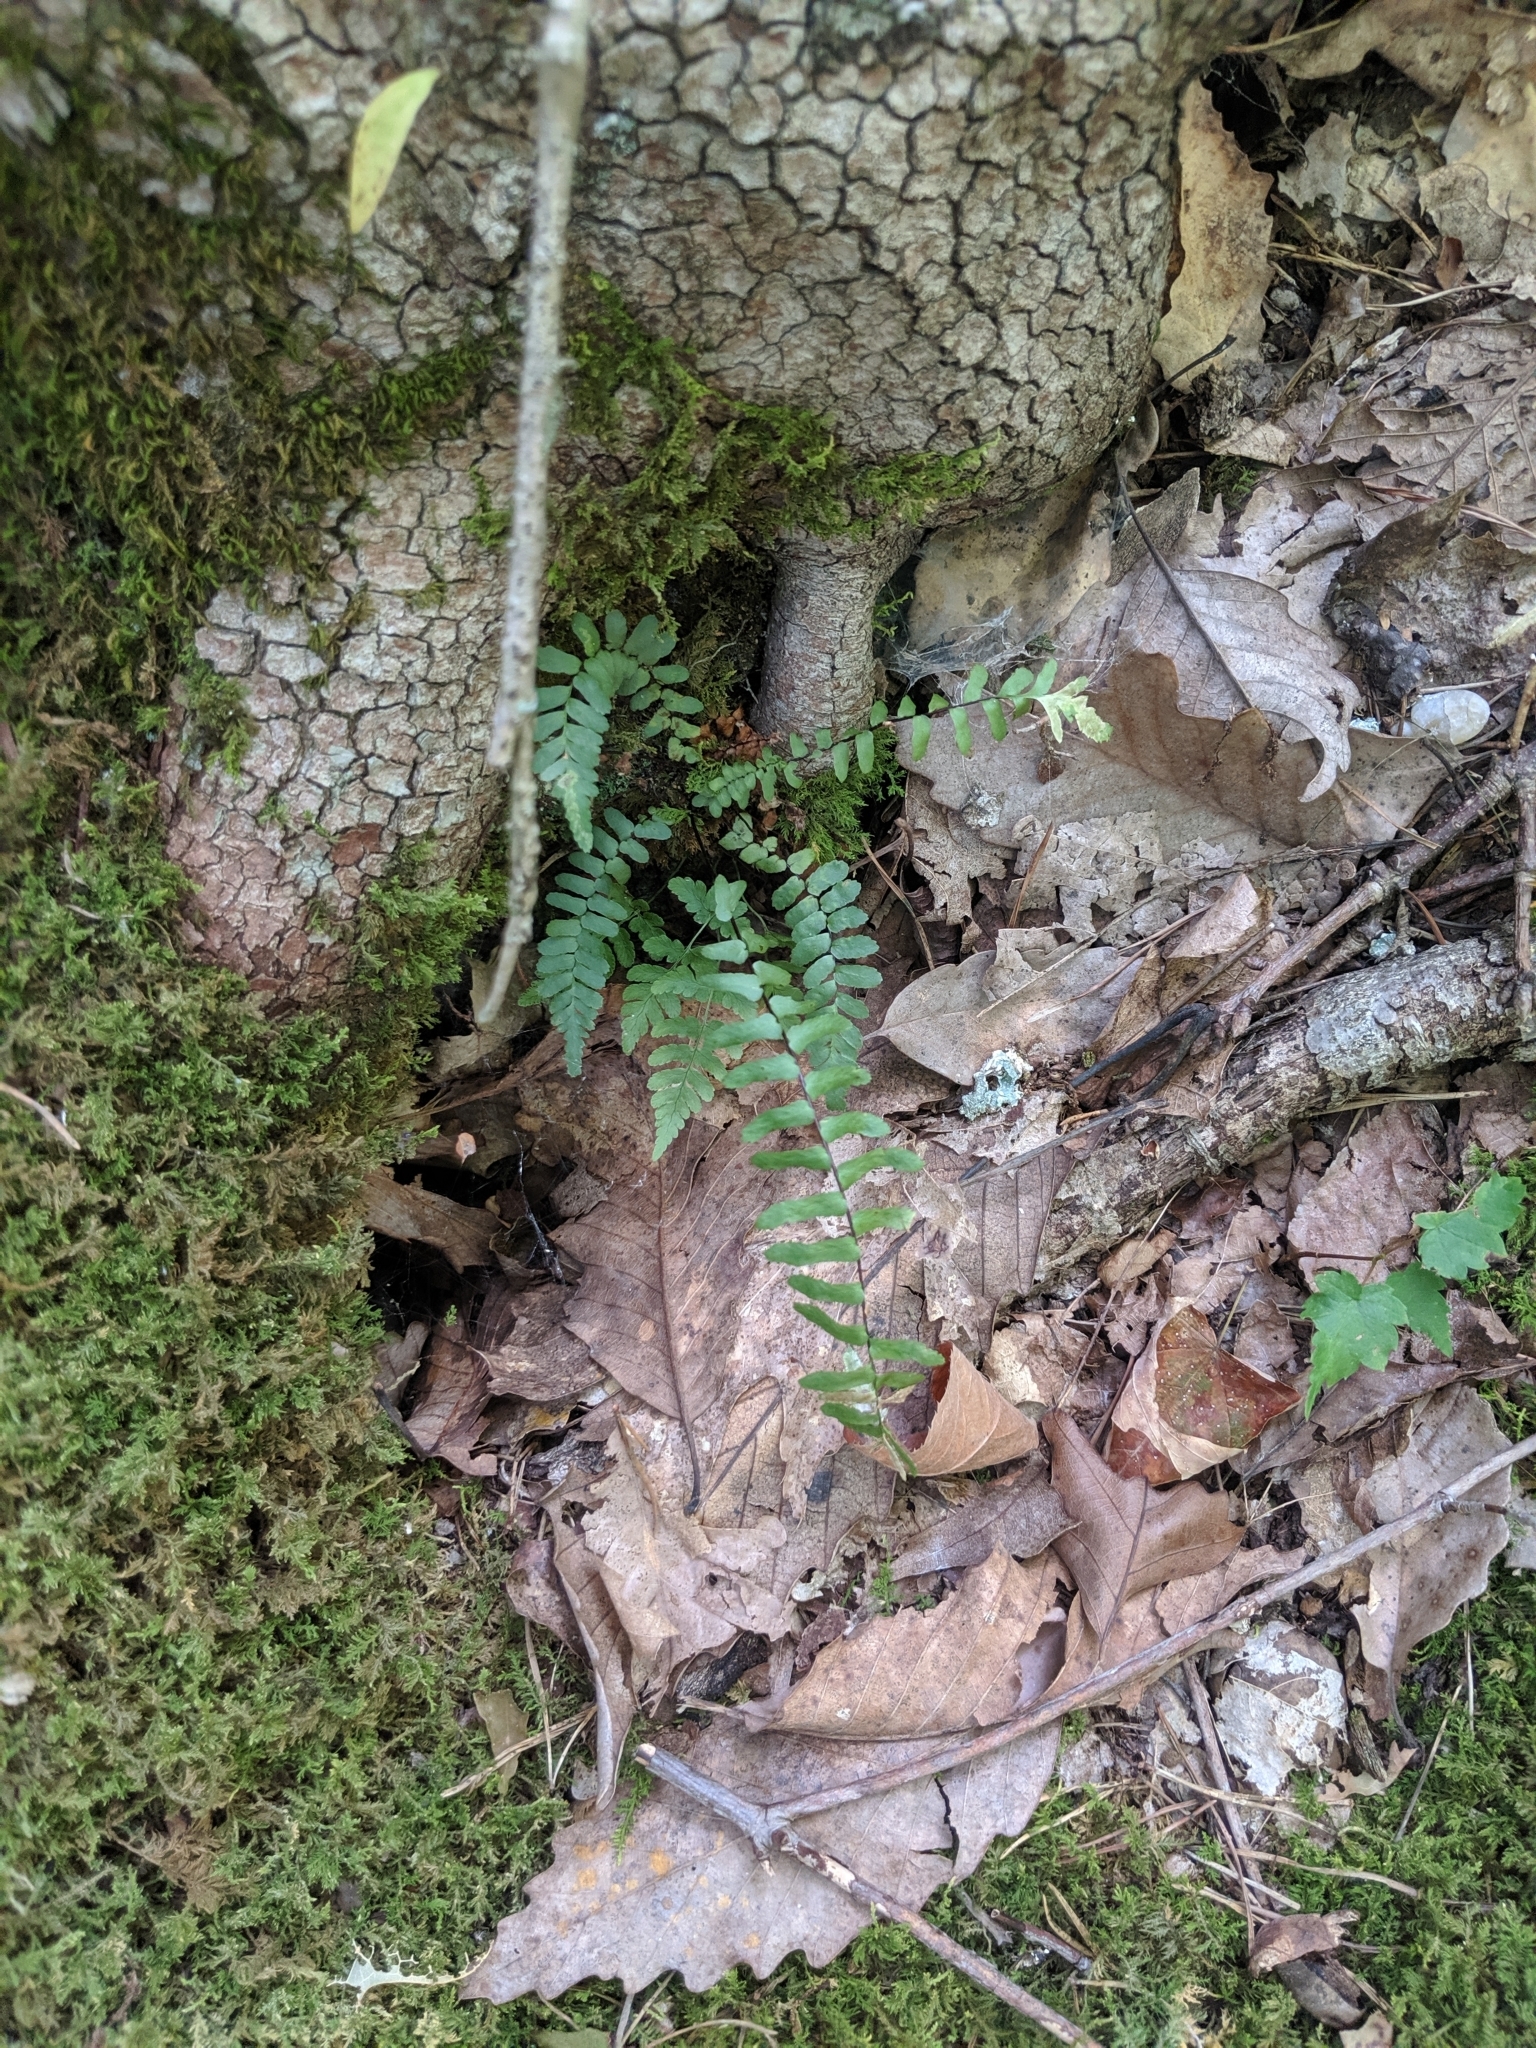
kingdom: Plantae
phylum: Tracheophyta
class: Polypodiopsida
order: Polypodiales
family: Aspleniaceae
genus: Asplenium
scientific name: Asplenium platyneuron
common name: Ebony spleenwort
